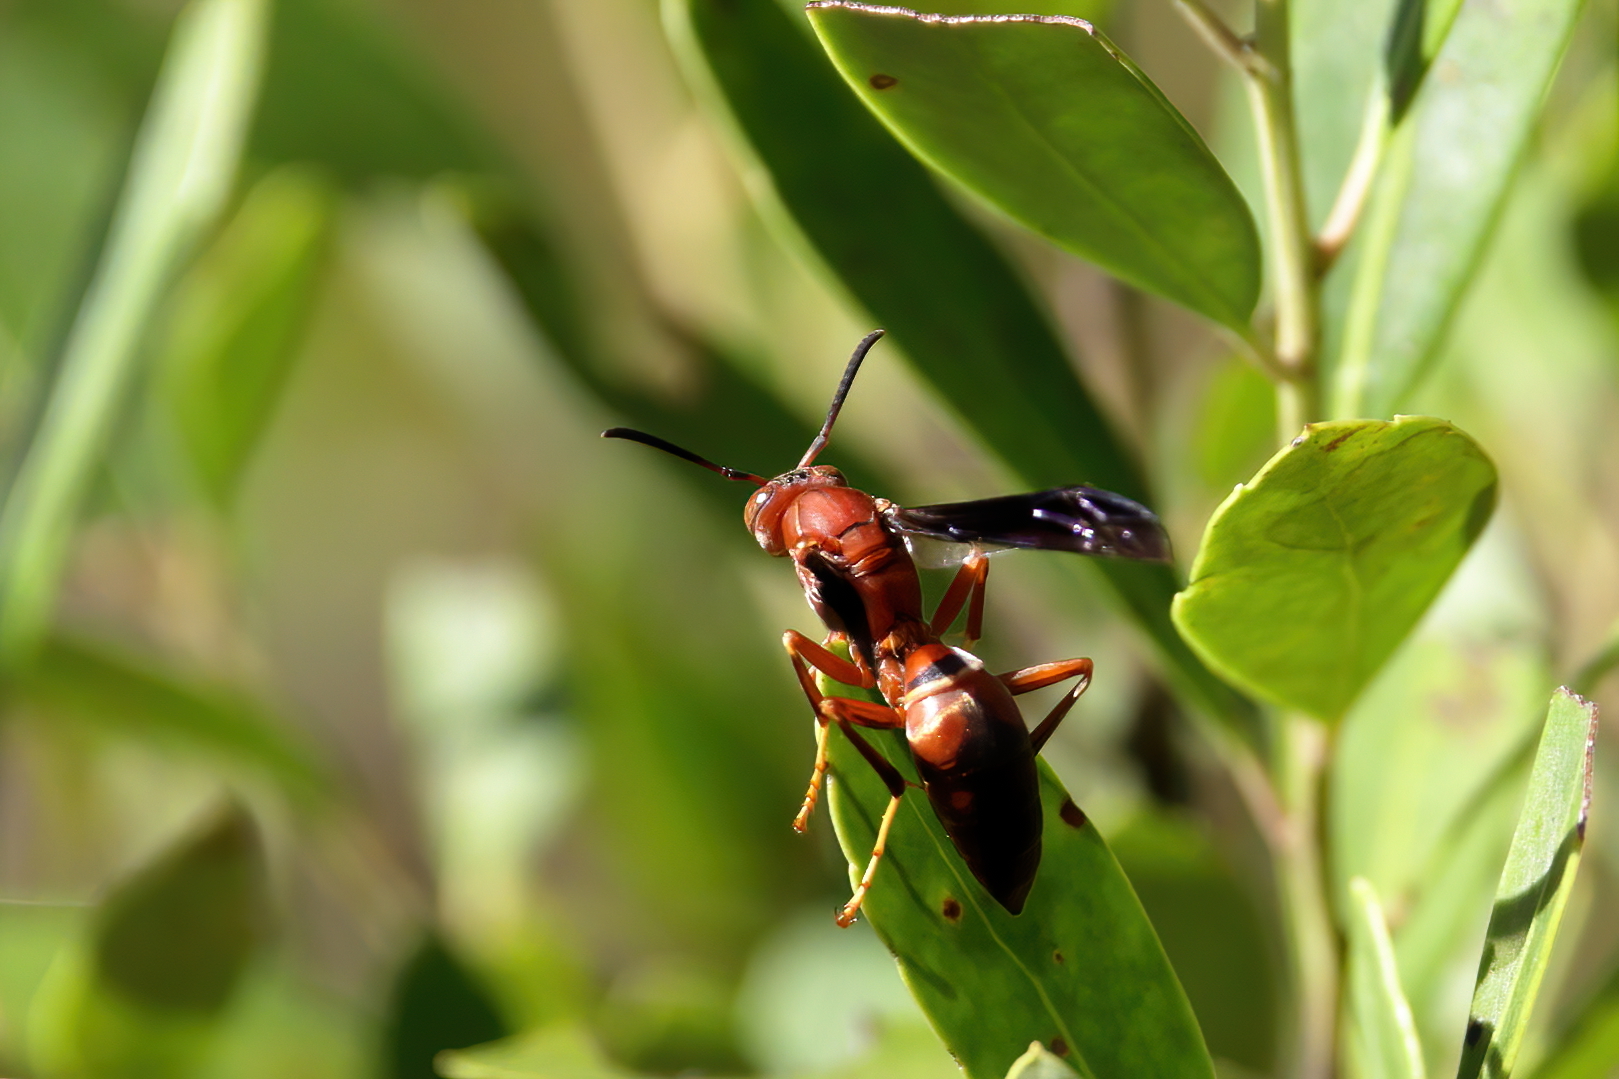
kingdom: Animalia
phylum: Arthropoda
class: Insecta
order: Hymenoptera
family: Eumenidae
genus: Polistes
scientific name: Polistes metricus
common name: Metric paper wasp
